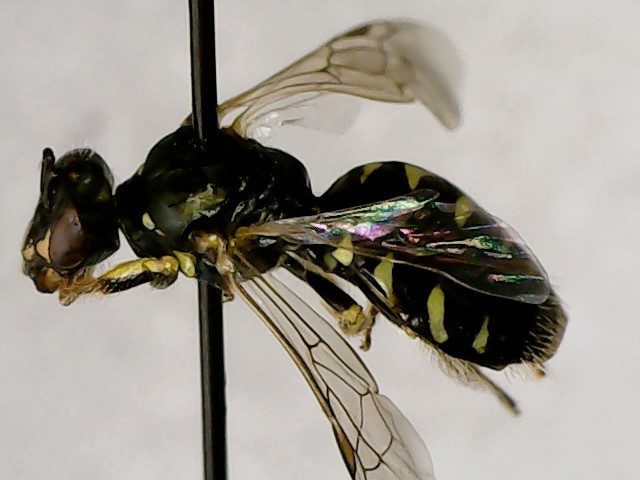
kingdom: Animalia
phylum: Arthropoda
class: Insecta
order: Hymenoptera
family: Andrenidae
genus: Perdita
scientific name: Perdita octomaculata
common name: Eight-spotted miner bee
